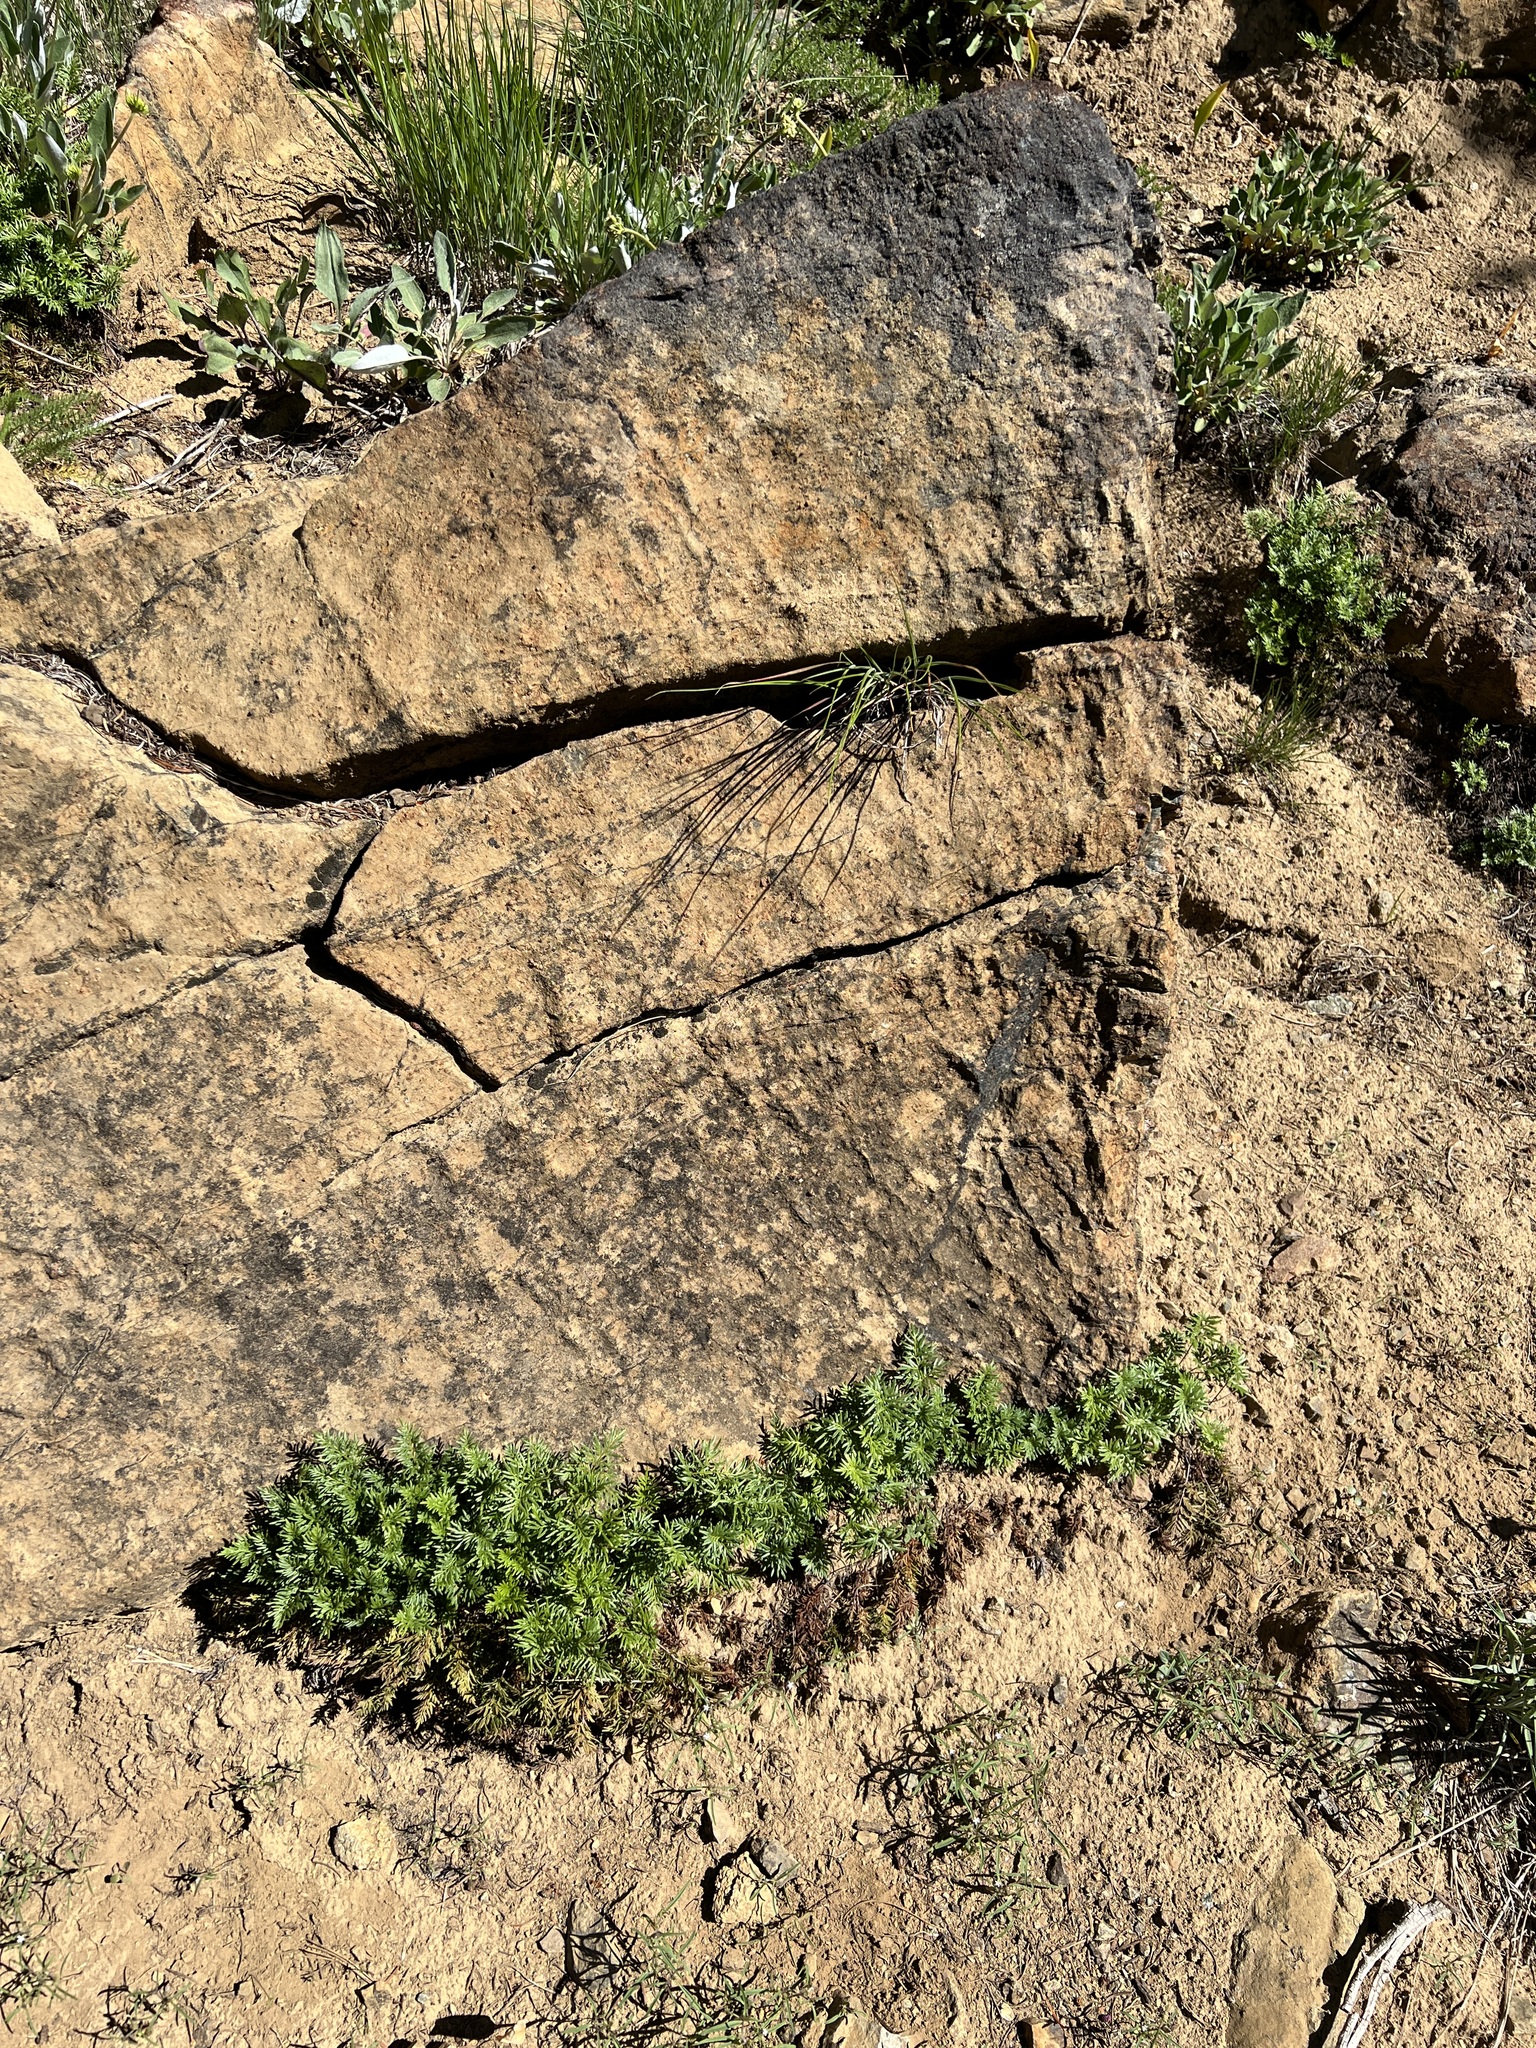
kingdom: Plantae
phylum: Tracheophyta
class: Polypodiopsida
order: Polypodiales
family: Pteridaceae
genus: Aspidotis
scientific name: Aspidotis densa
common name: Indian's dream
